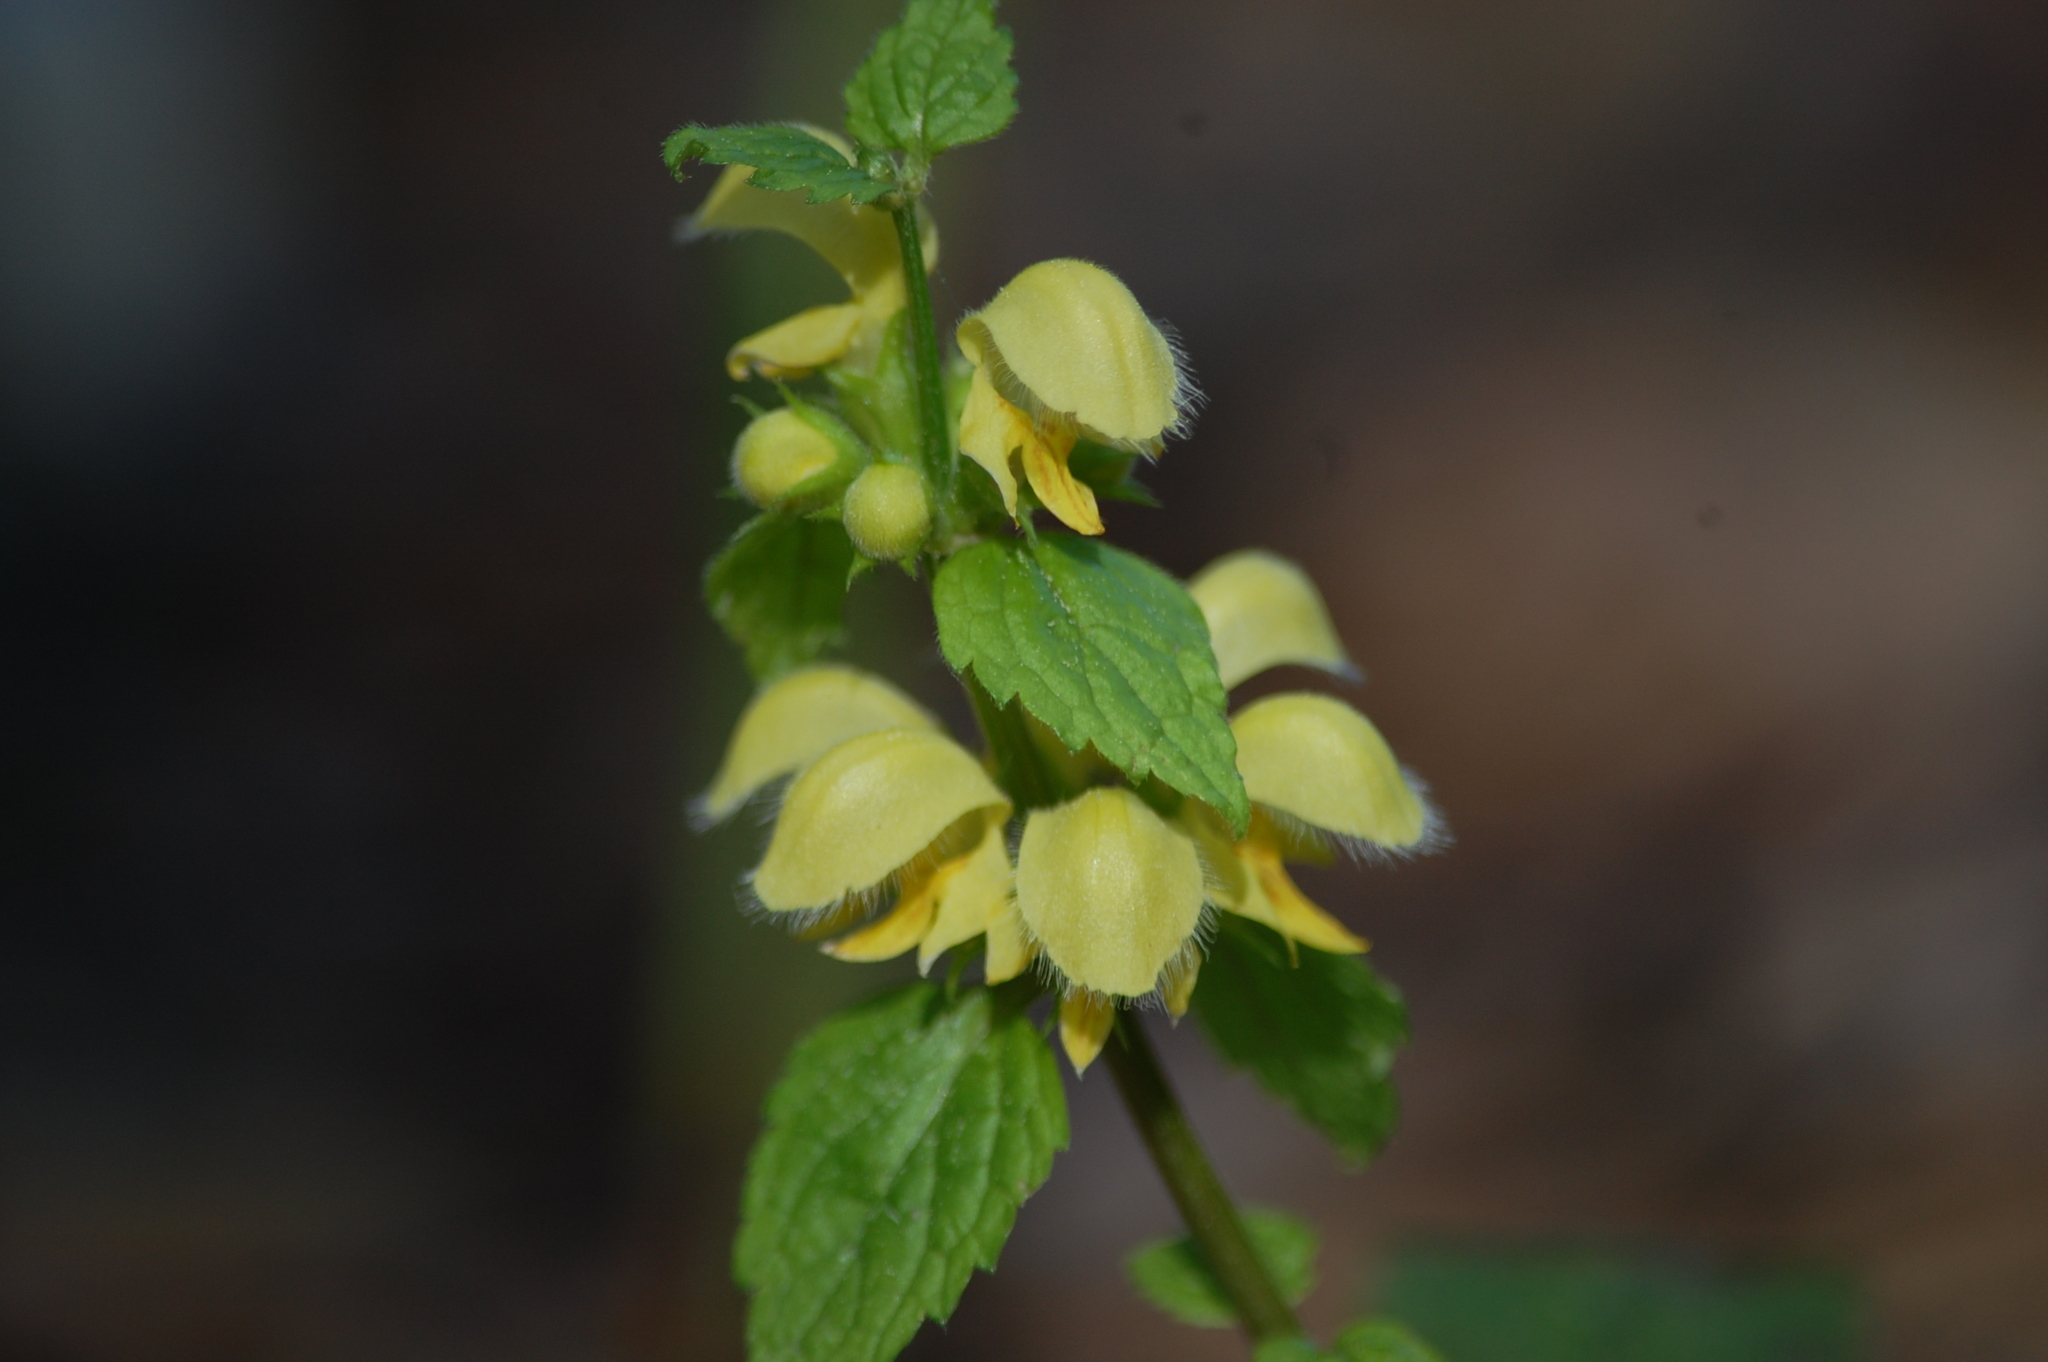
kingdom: Plantae
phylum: Tracheophyta
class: Magnoliopsida
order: Lamiales
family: Lamiaceae
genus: Lamium
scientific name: Lamium galeobdolon
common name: Yellow archangel
